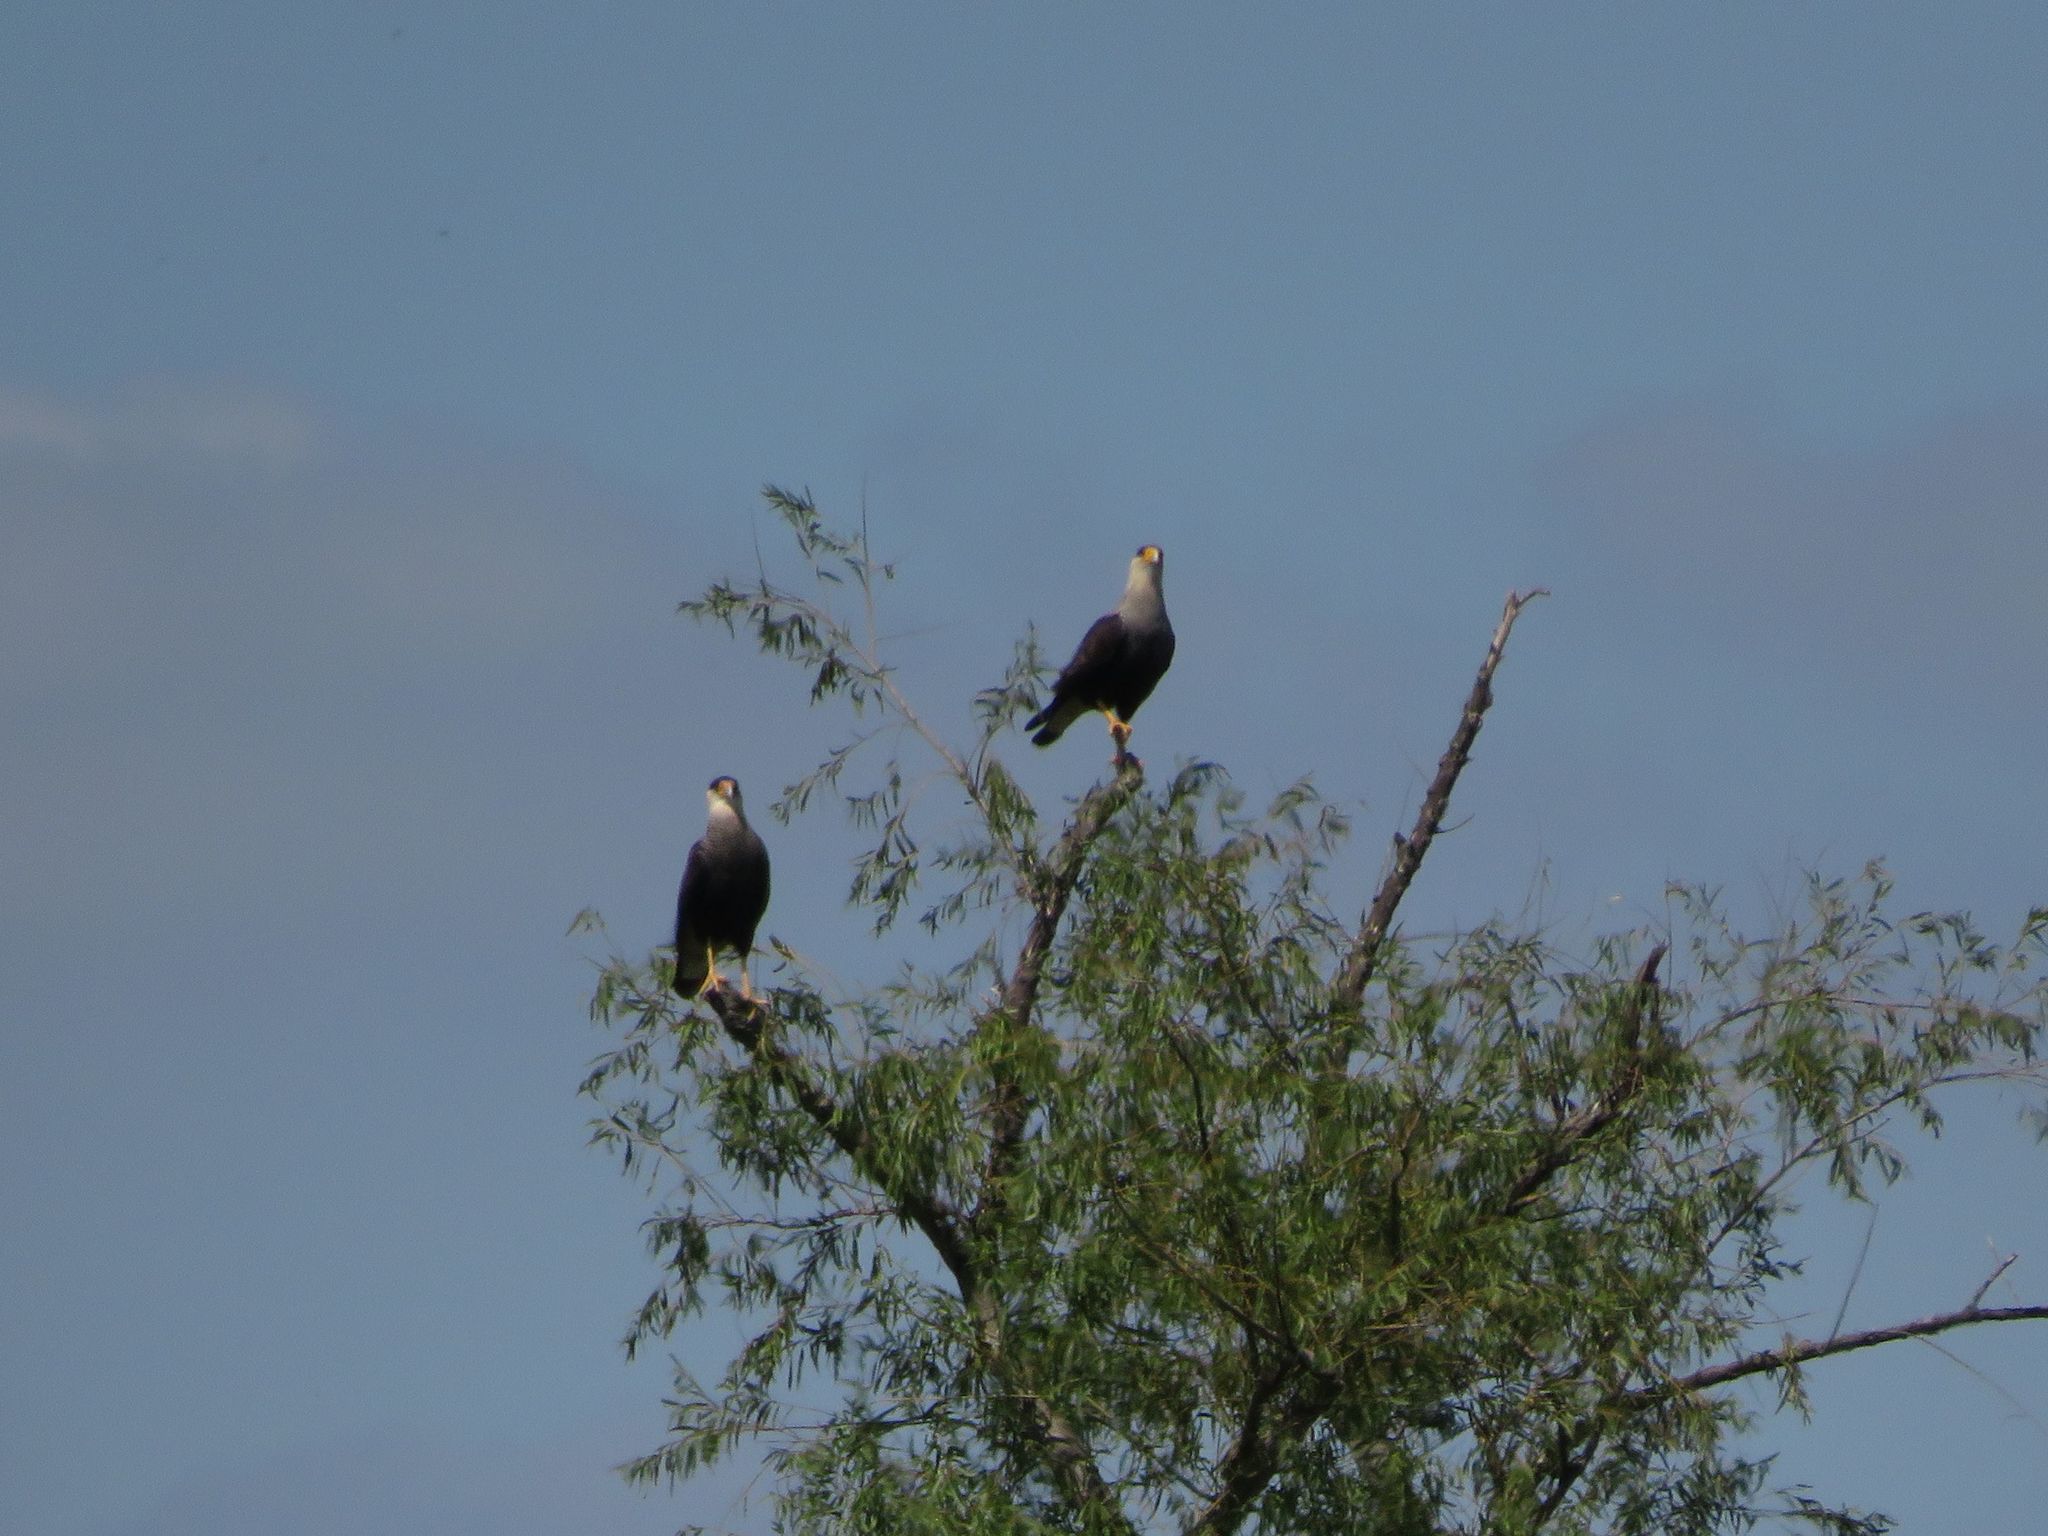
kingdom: Animalia
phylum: Chordata
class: Aves
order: Falconiformes
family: Falconidae
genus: Caracara
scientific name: Caracara plancus
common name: Southern caracara
